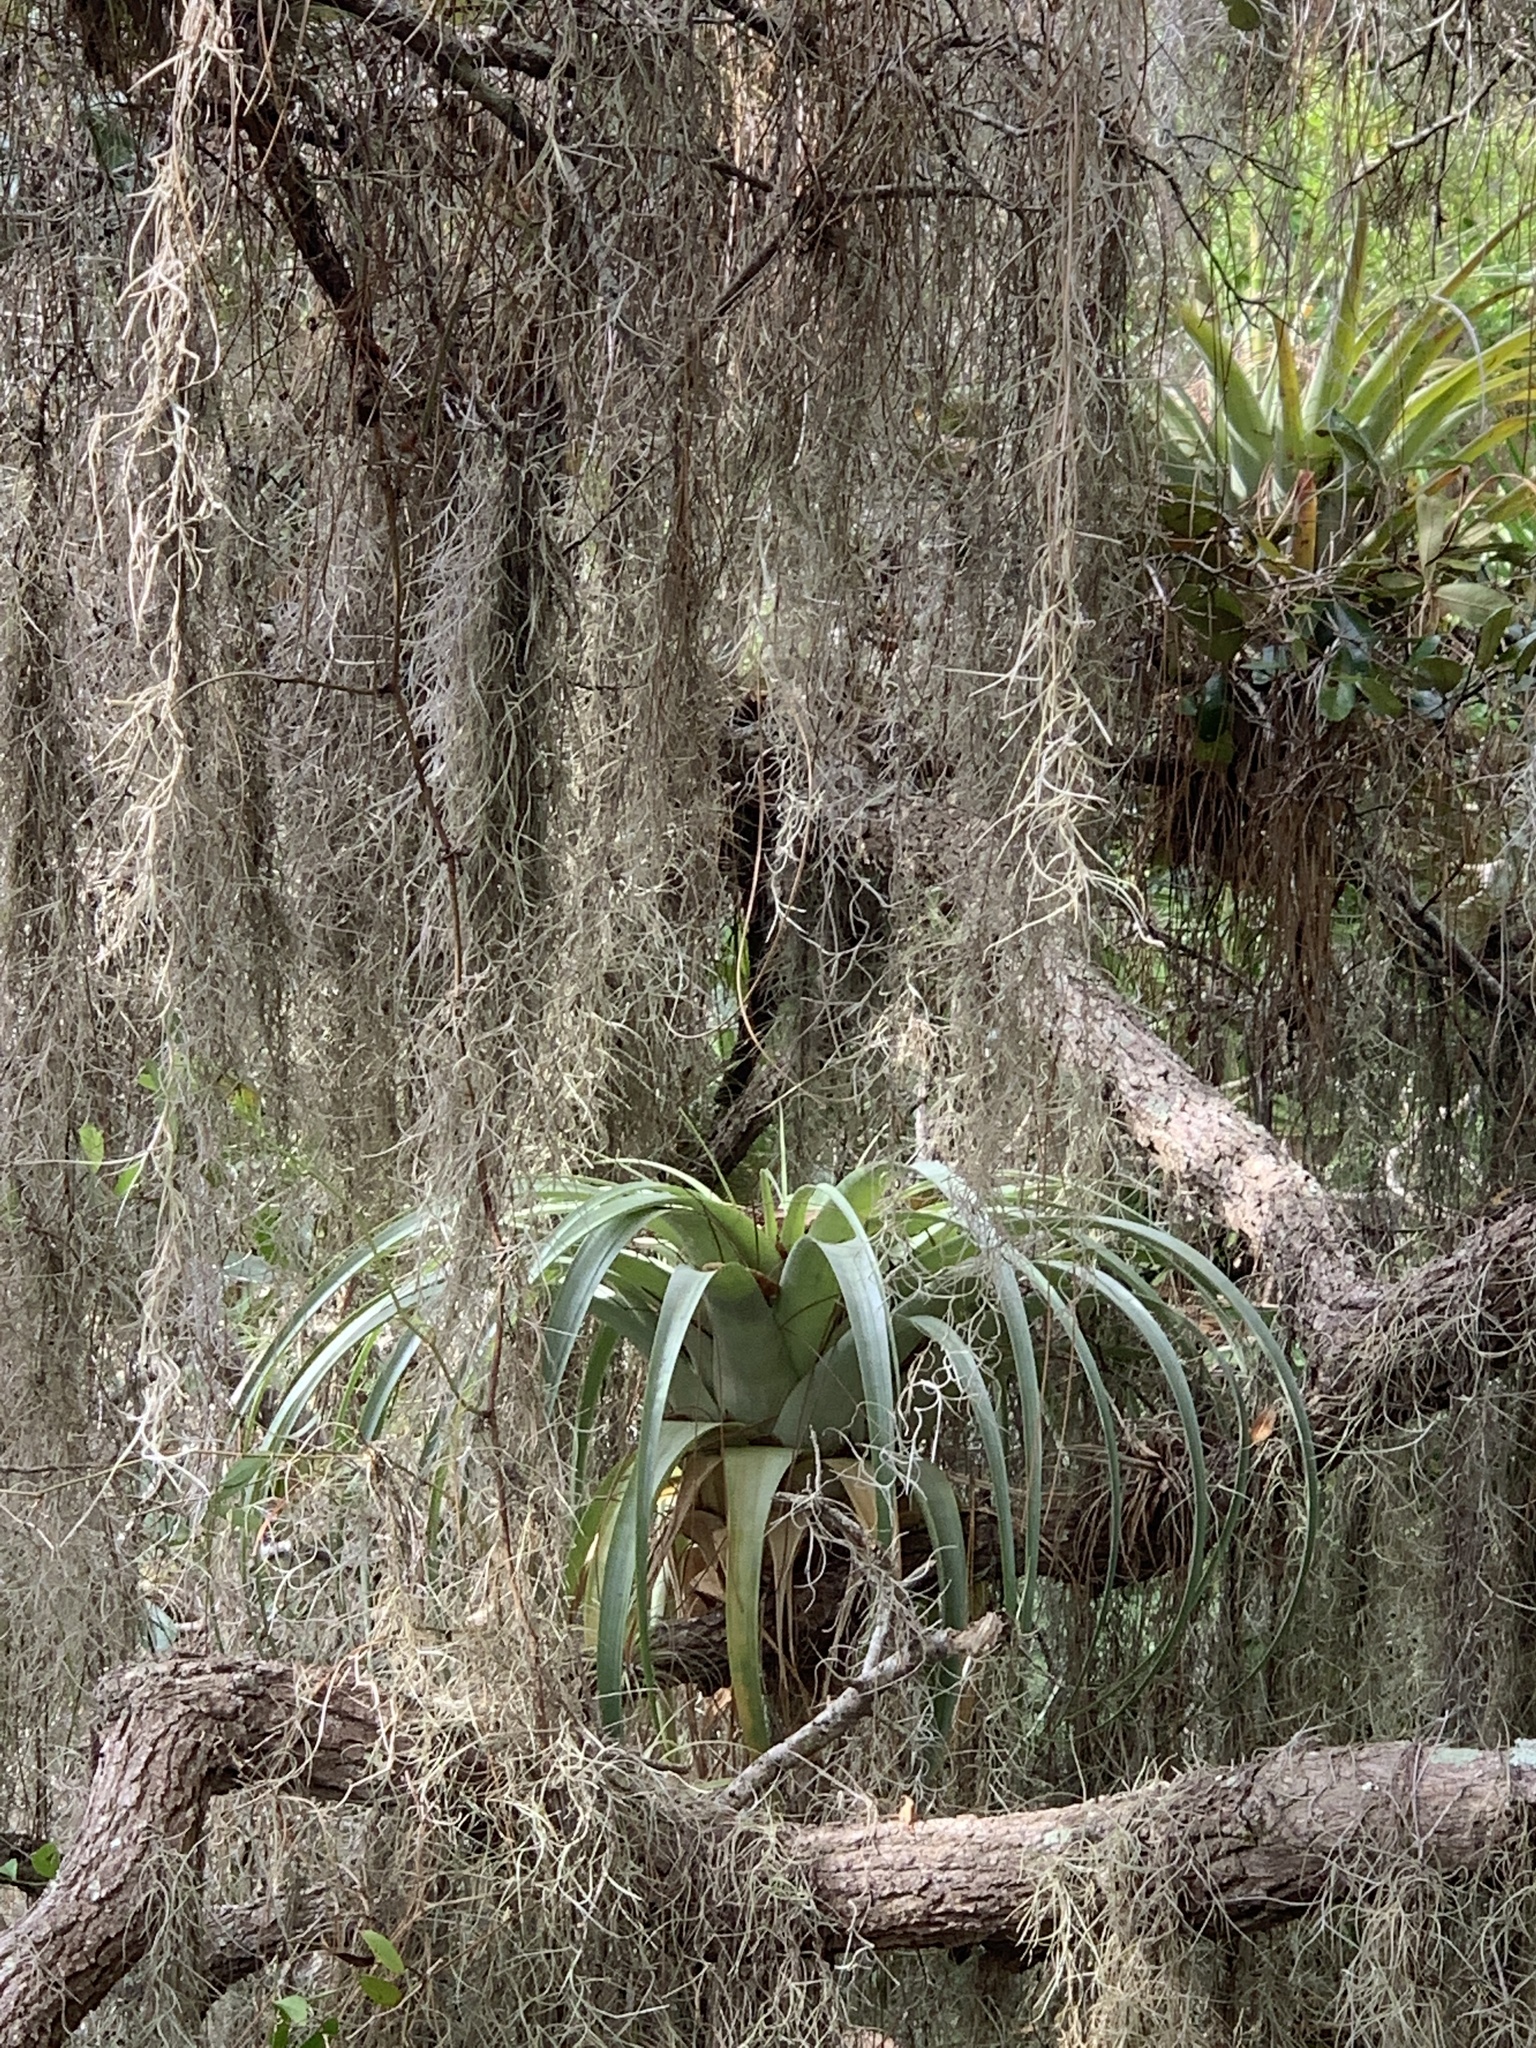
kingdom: Plantae
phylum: Tracheophyta
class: Liliopsida
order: Poales
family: Bromeliaceae
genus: Tillandsia
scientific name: Tillandsia utriculata
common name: Wild pine
